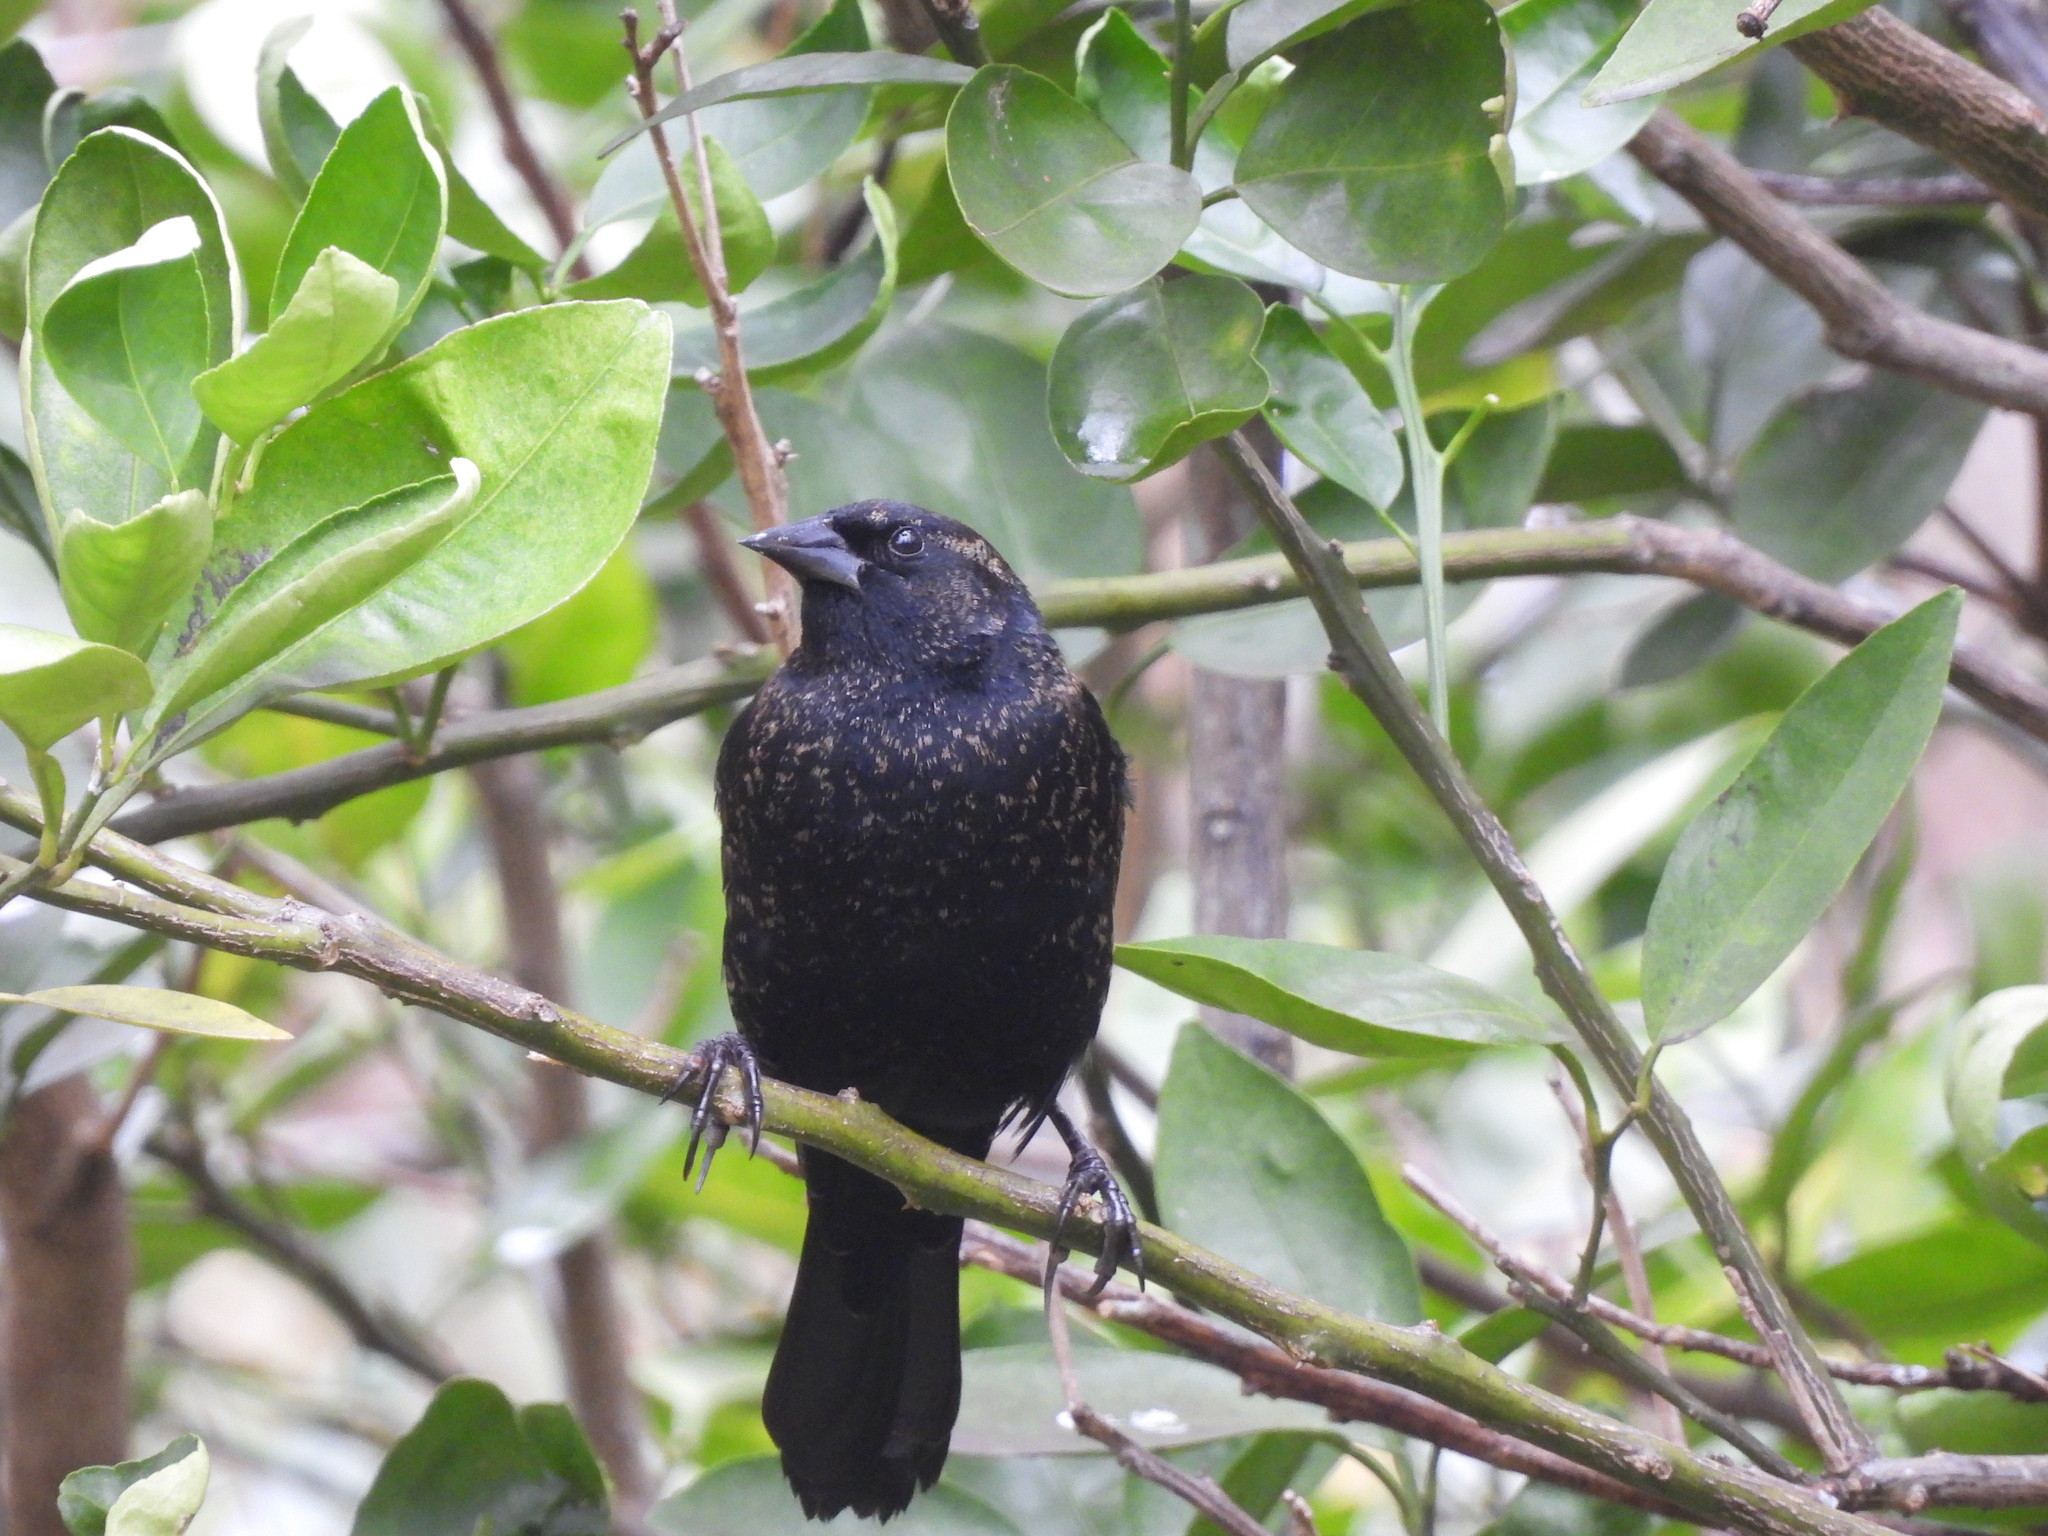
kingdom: Animalia
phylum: Chordata
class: Aves
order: Passeriformes
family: Icteridae
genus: Agelaius
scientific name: Agelaius phoeniceus
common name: Red-winged blackbird
